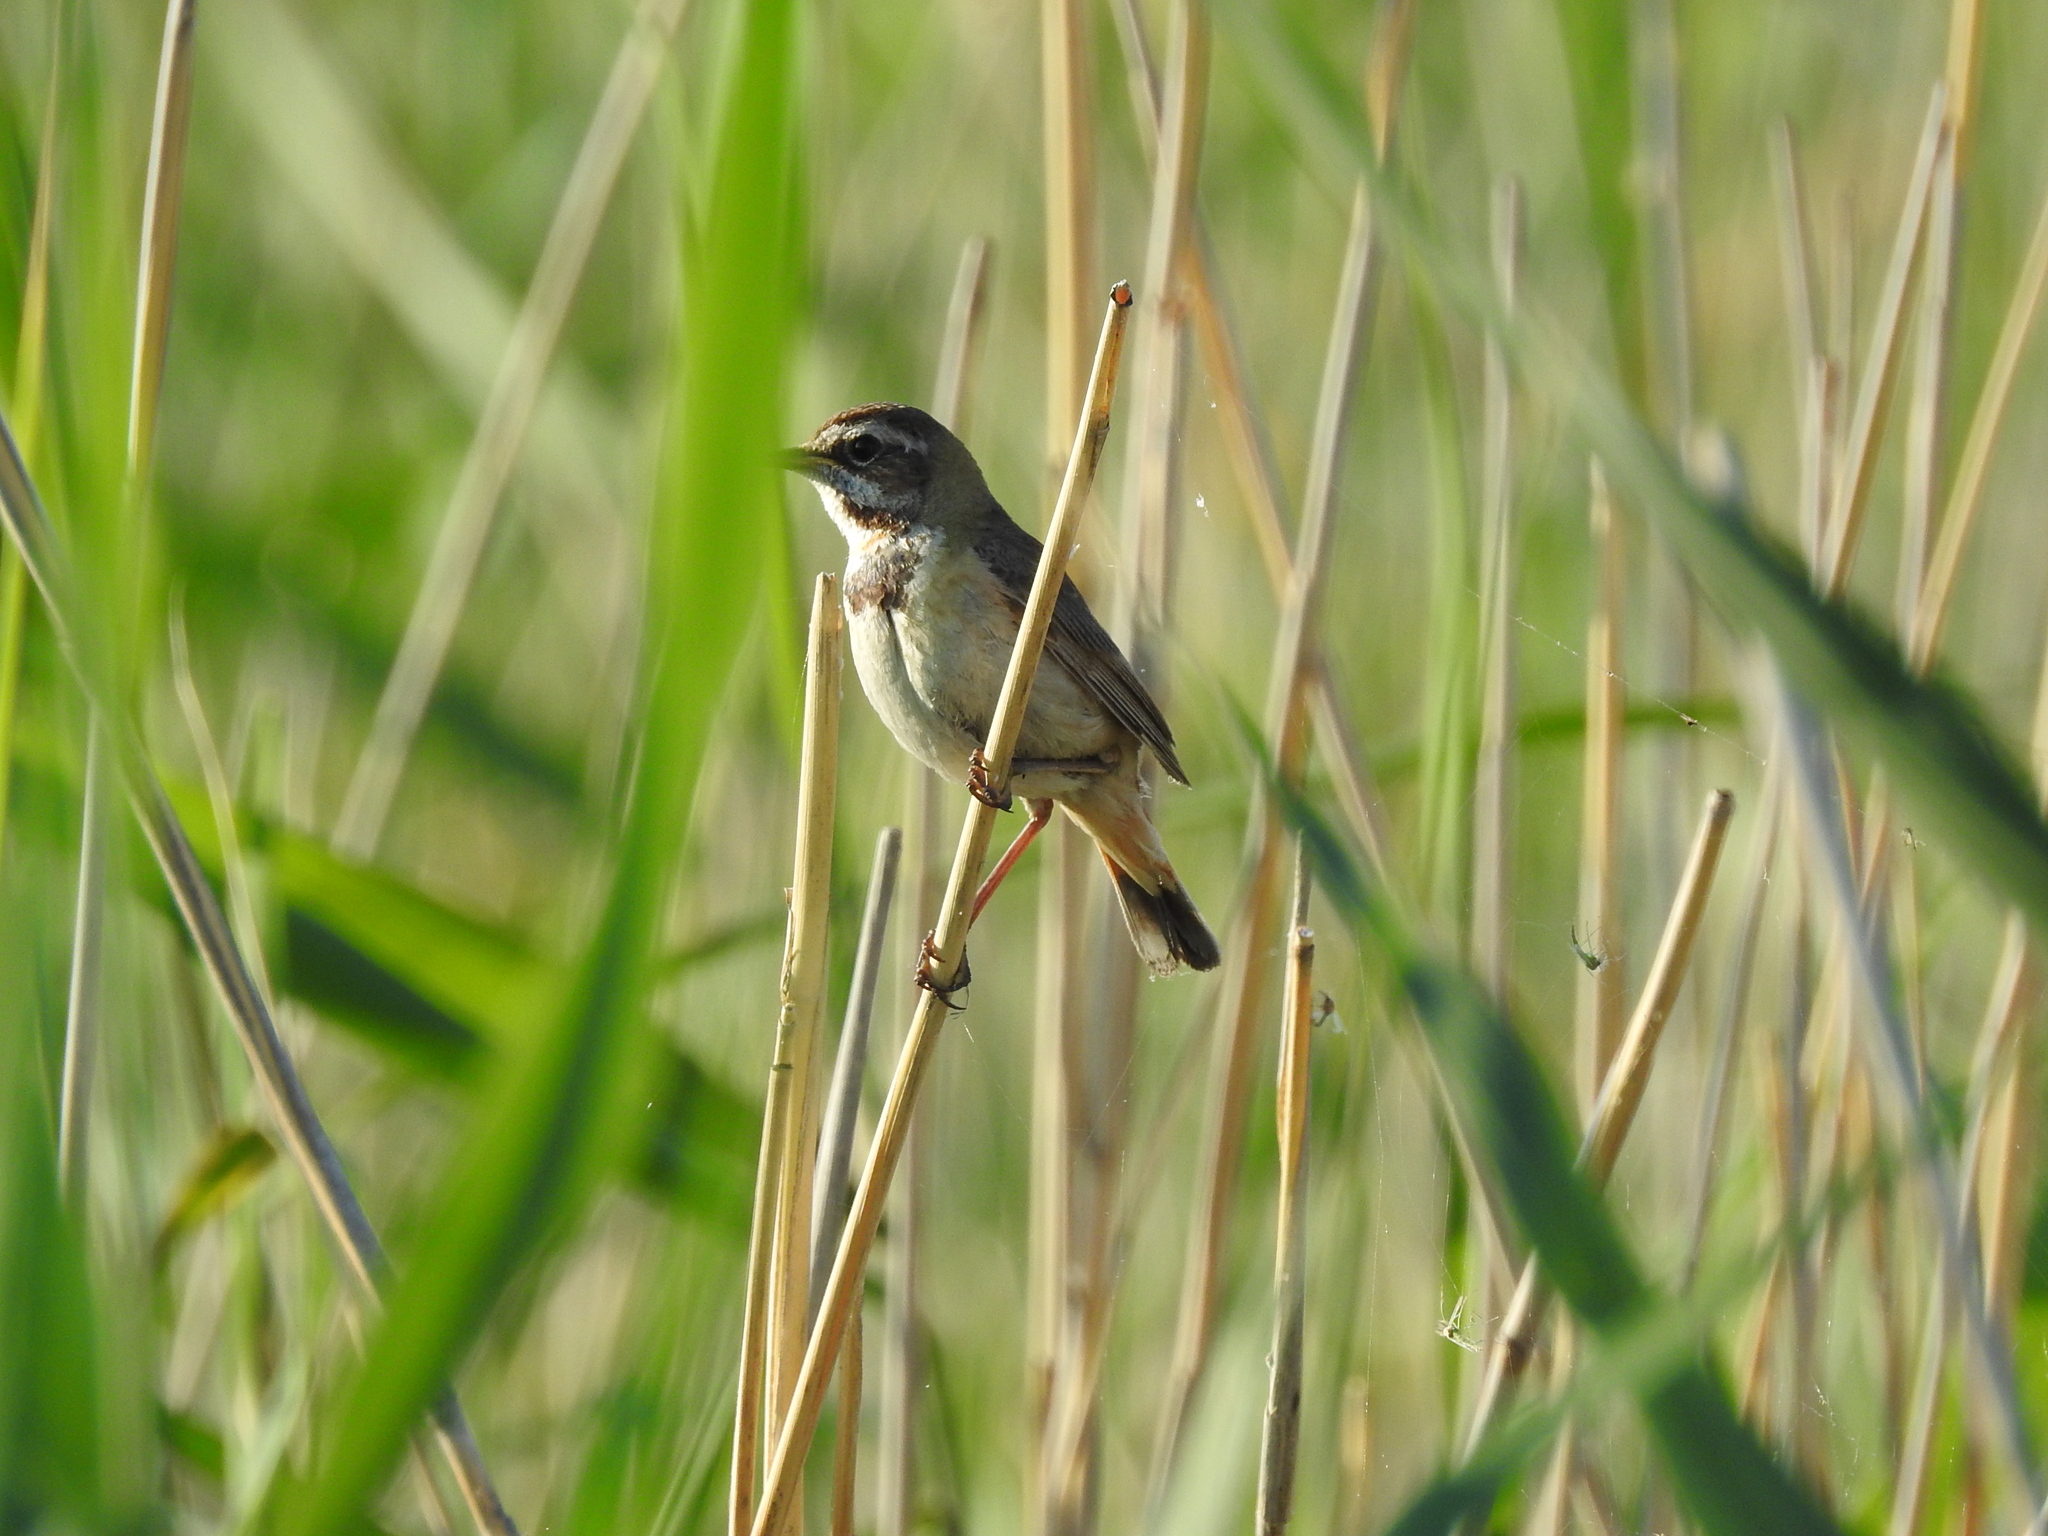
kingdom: Animalia
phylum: Chordata
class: Aves
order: Passeriformes
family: Muscicapidae
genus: Luscinia
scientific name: Luscinia svecica
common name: Bluethroat
